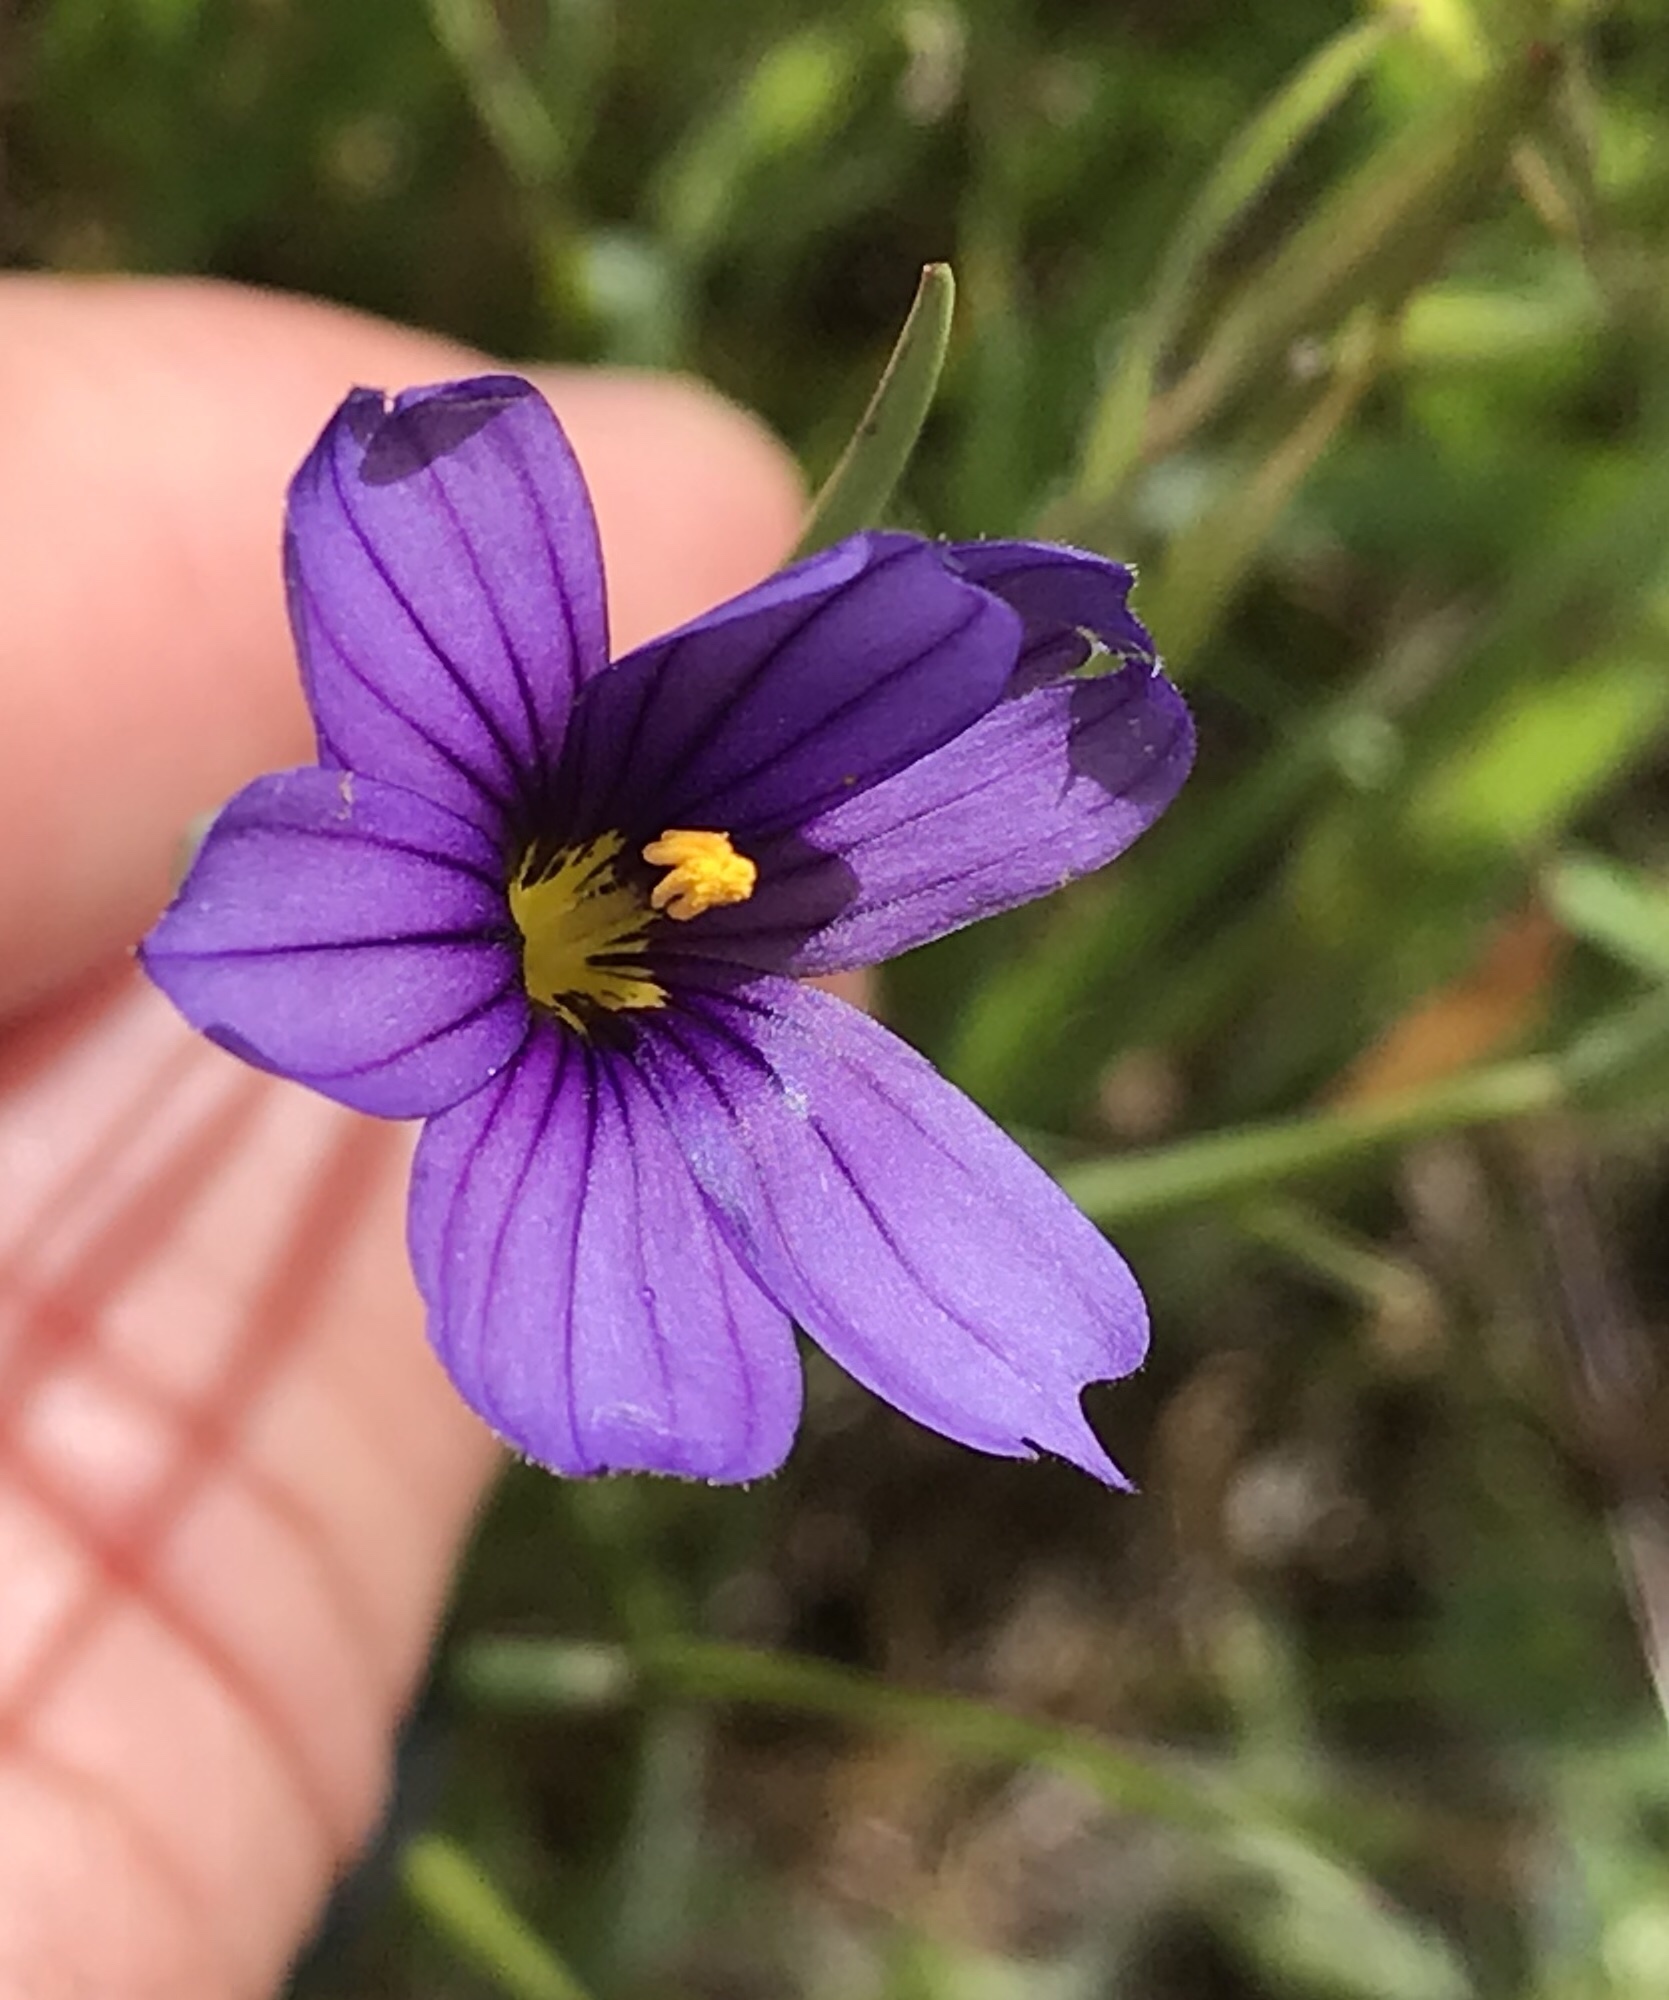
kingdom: Plantae
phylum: Tracheophyta
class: Liliopsida
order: Asparagales
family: Iridaceae
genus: Sisyrinchium
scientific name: Sisyrinchium bellum
